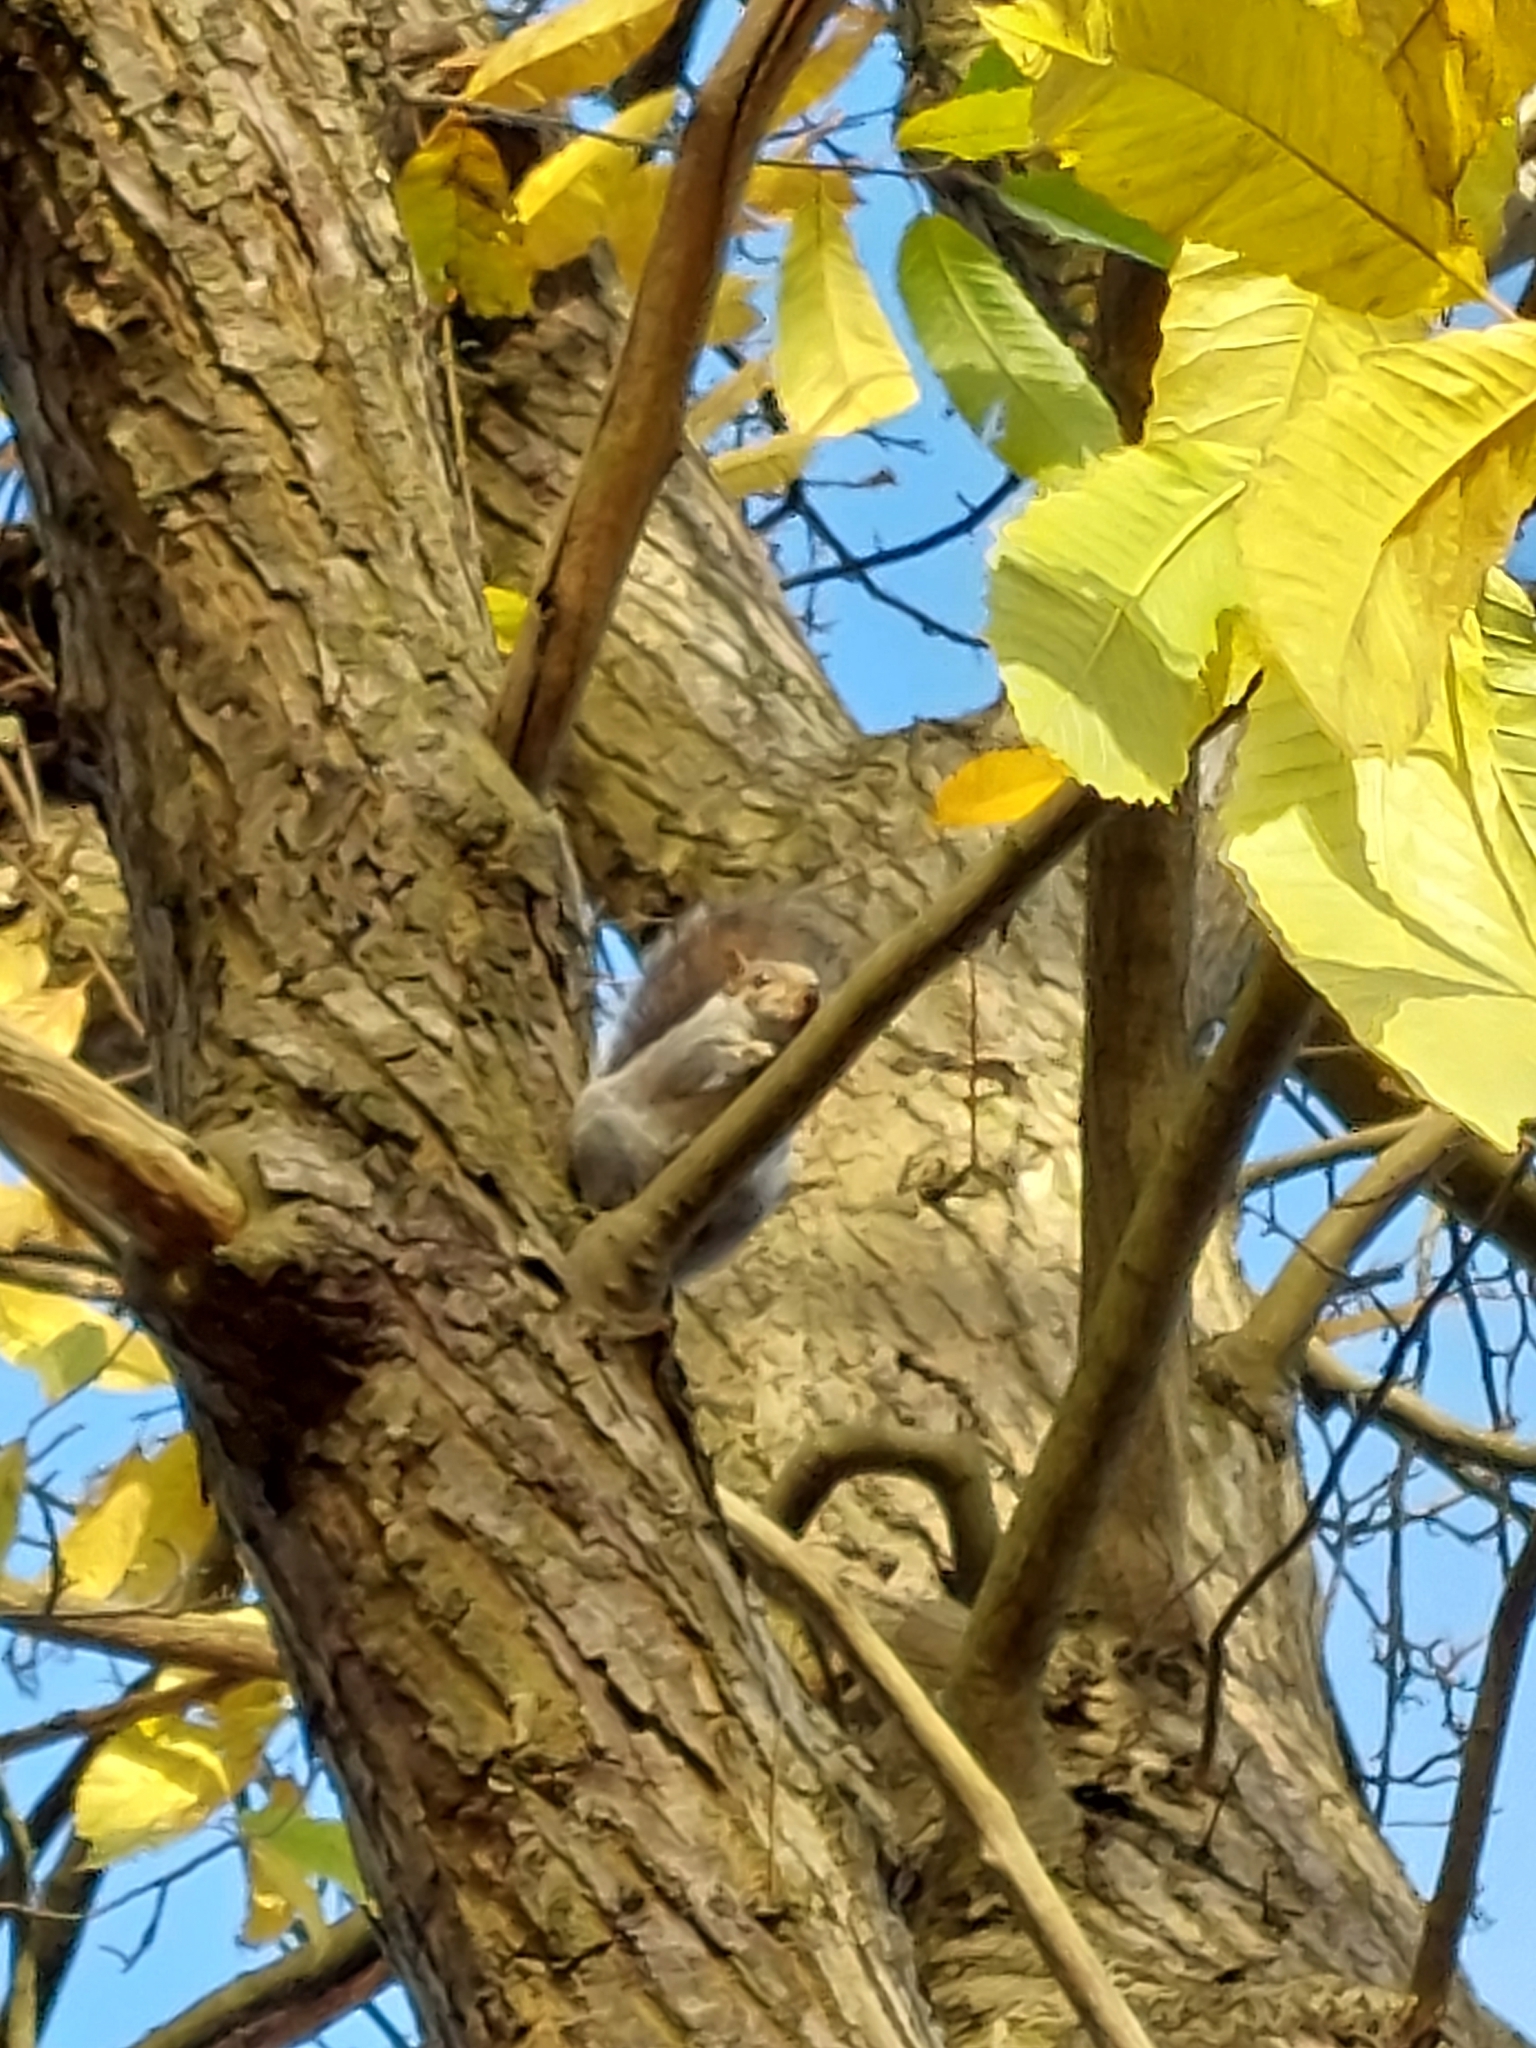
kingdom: Animalia
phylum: Chordata
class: Mammalia
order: Rodentia
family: Sciuridae
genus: Sciurus
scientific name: Sciurus carolinensis
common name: Eastern gray squirrel
